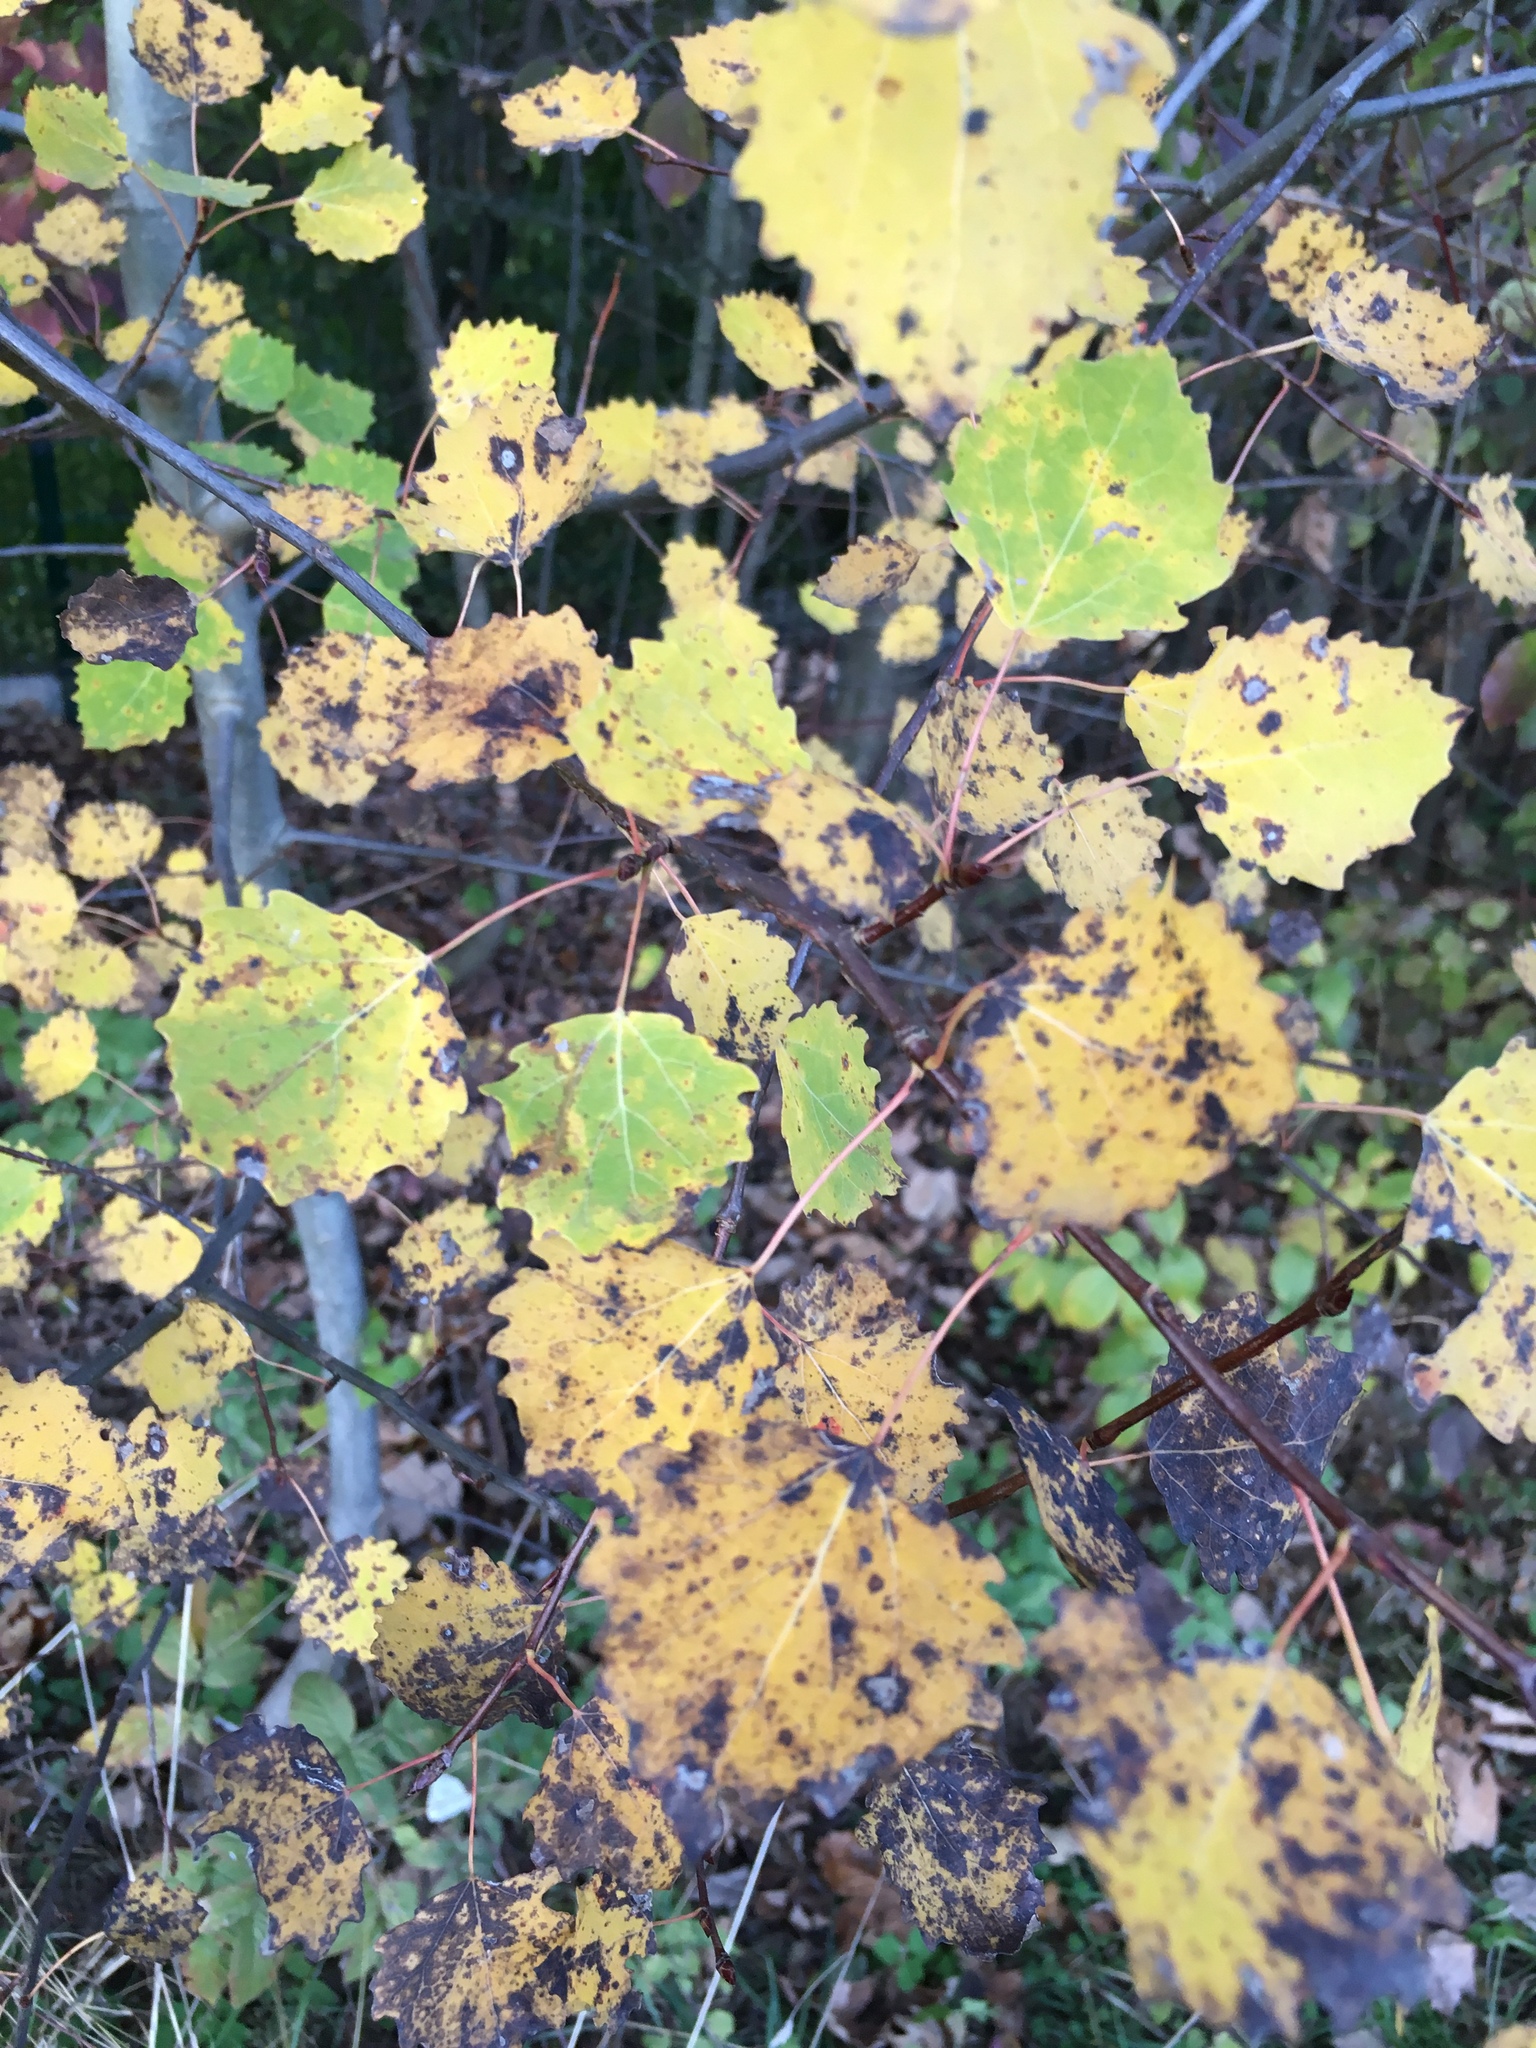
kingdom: Plantae
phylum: Tracheophyta
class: Magnoliopsida
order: Malpighiales
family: Salicaceae
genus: Populus
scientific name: Populus tremula
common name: European aspen
